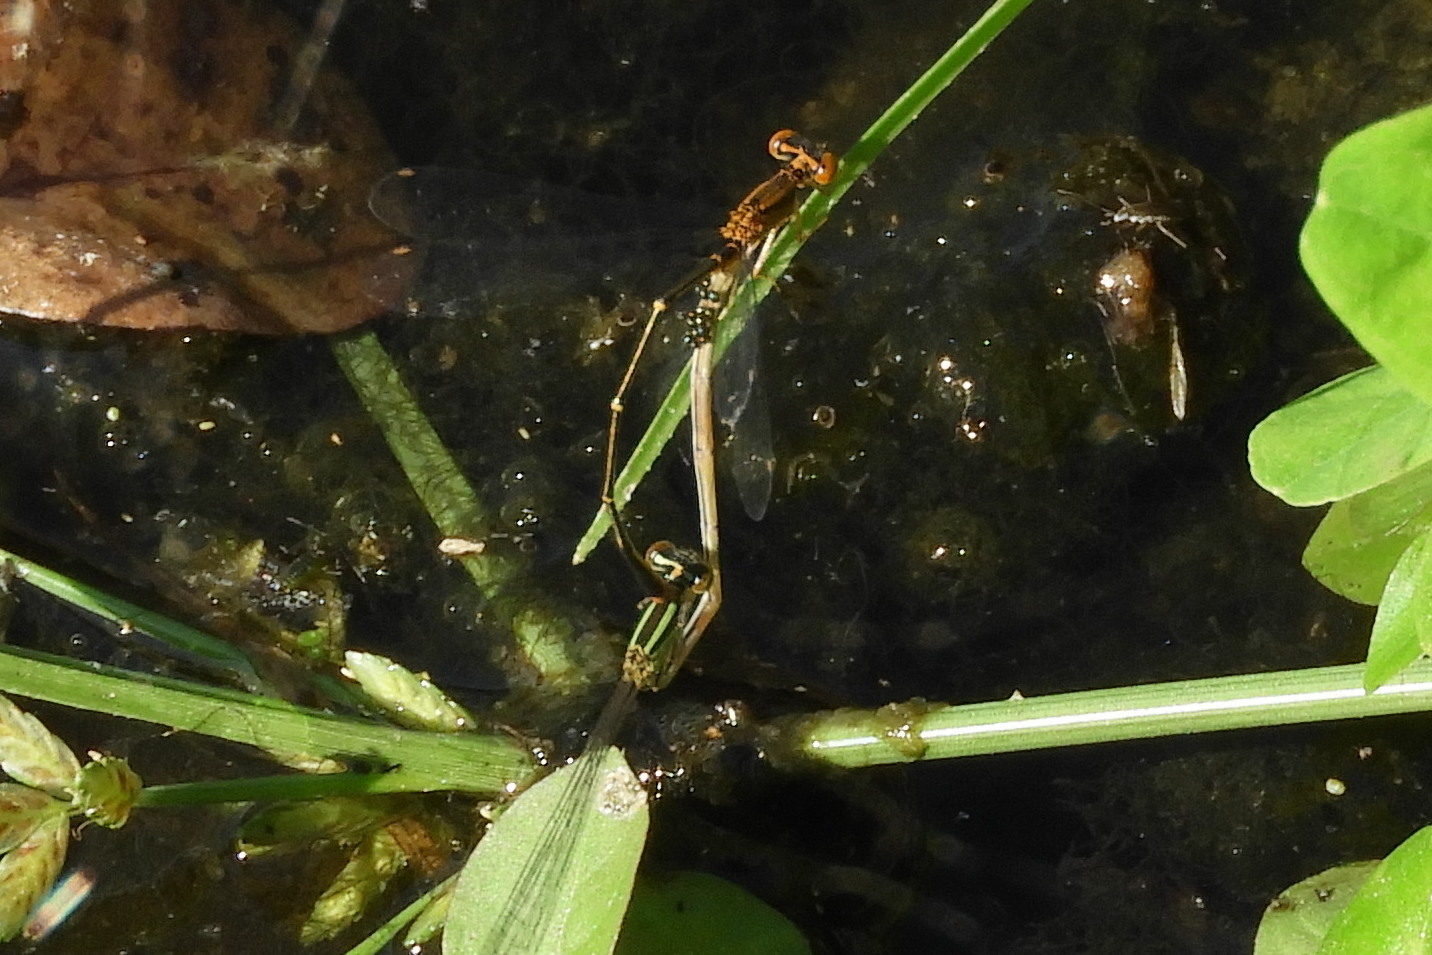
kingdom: Animalia
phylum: Arthropoda
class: Insecta
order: Odonata
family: Coenagrionidae
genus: Enallagma
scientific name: Enallagma signatum
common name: Orange bluet
